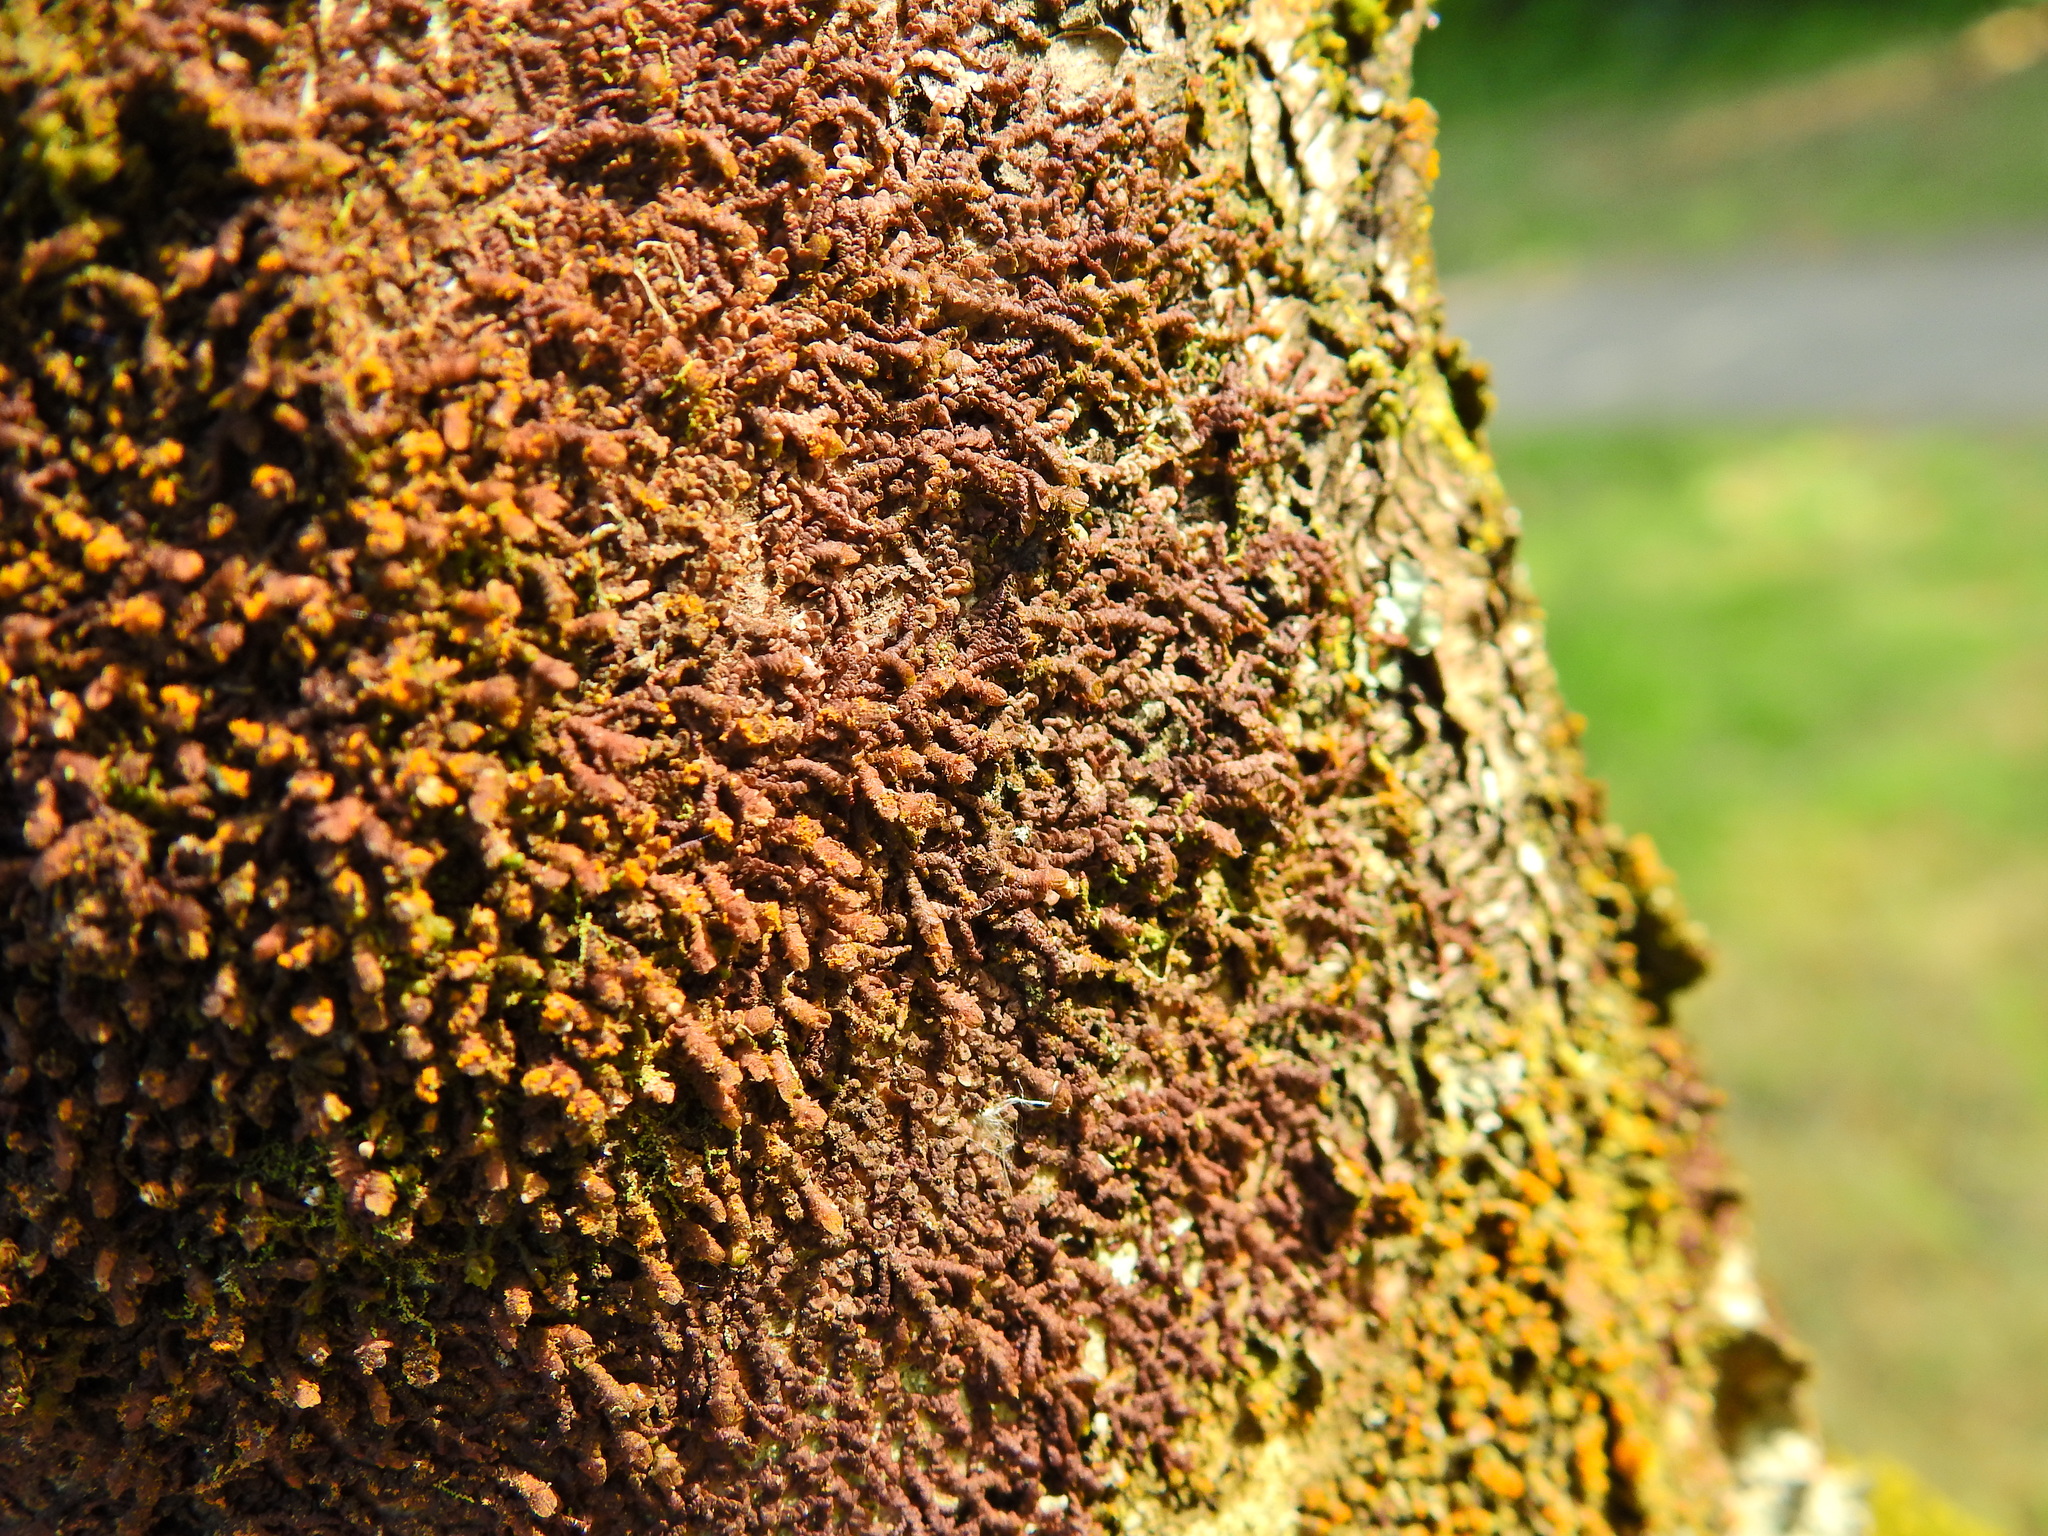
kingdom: Plantae
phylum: Marchantiophyta
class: Jungermanniopsida
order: Porellales
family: Frullaniaceae
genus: Frullania
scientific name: Frullania dilatata
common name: Dilated scalewort
